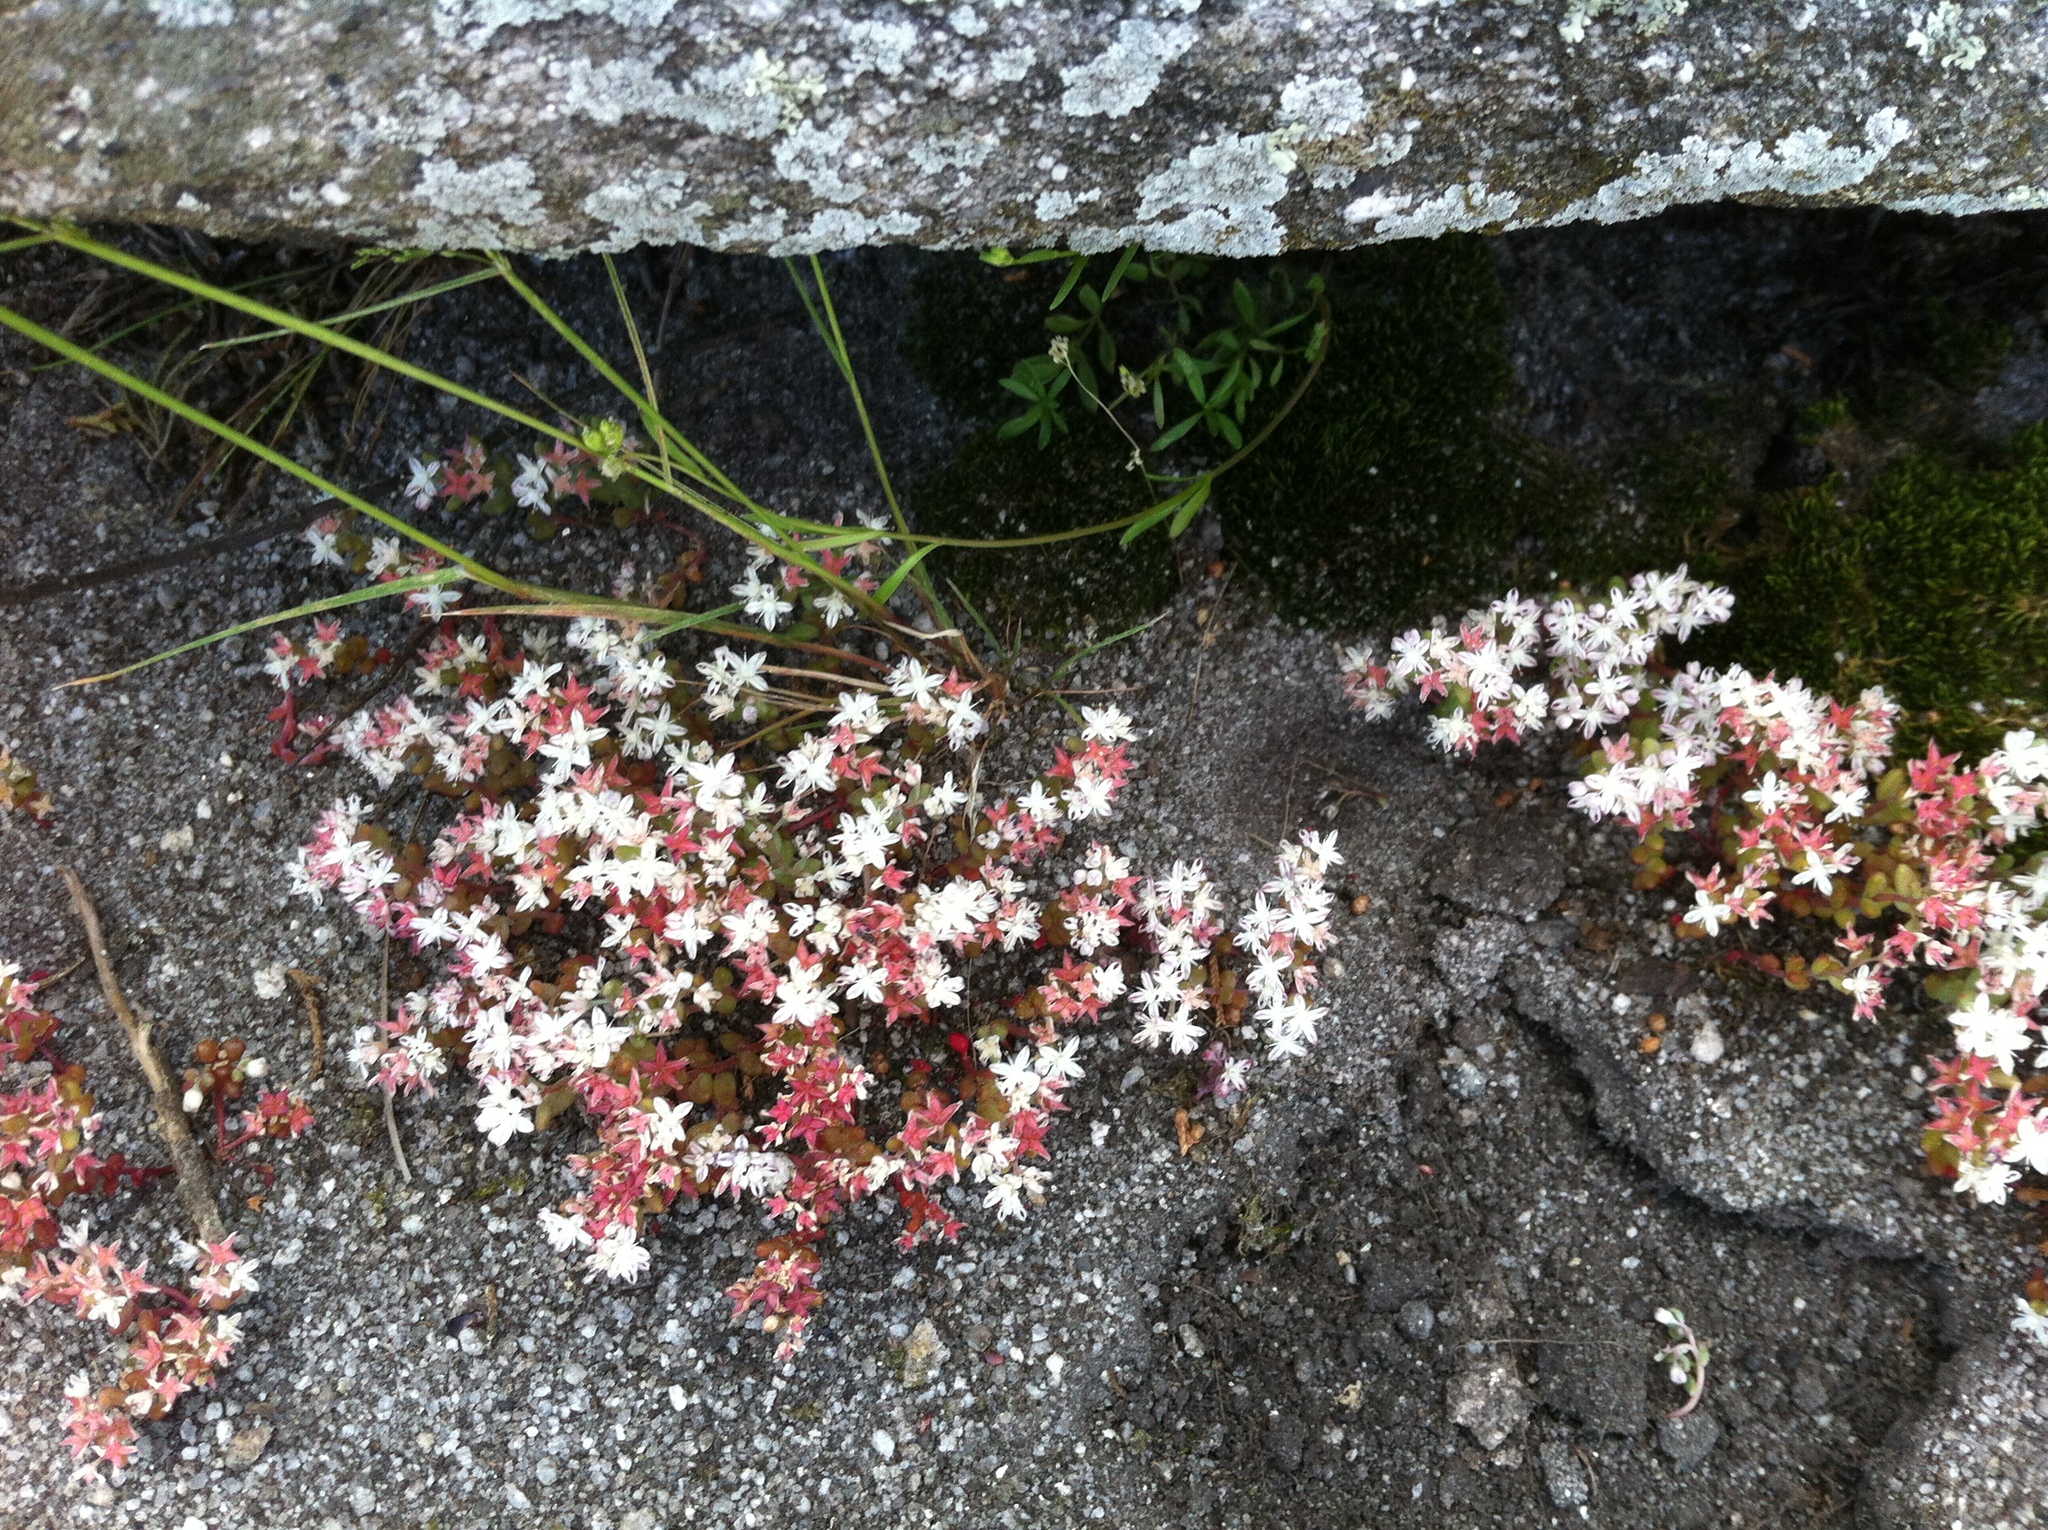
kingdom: Plantae
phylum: Tracheophyta
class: Magnoliopsida
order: Saxifragales
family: Crassulaceae
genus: Sedum
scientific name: Sedum smallii
